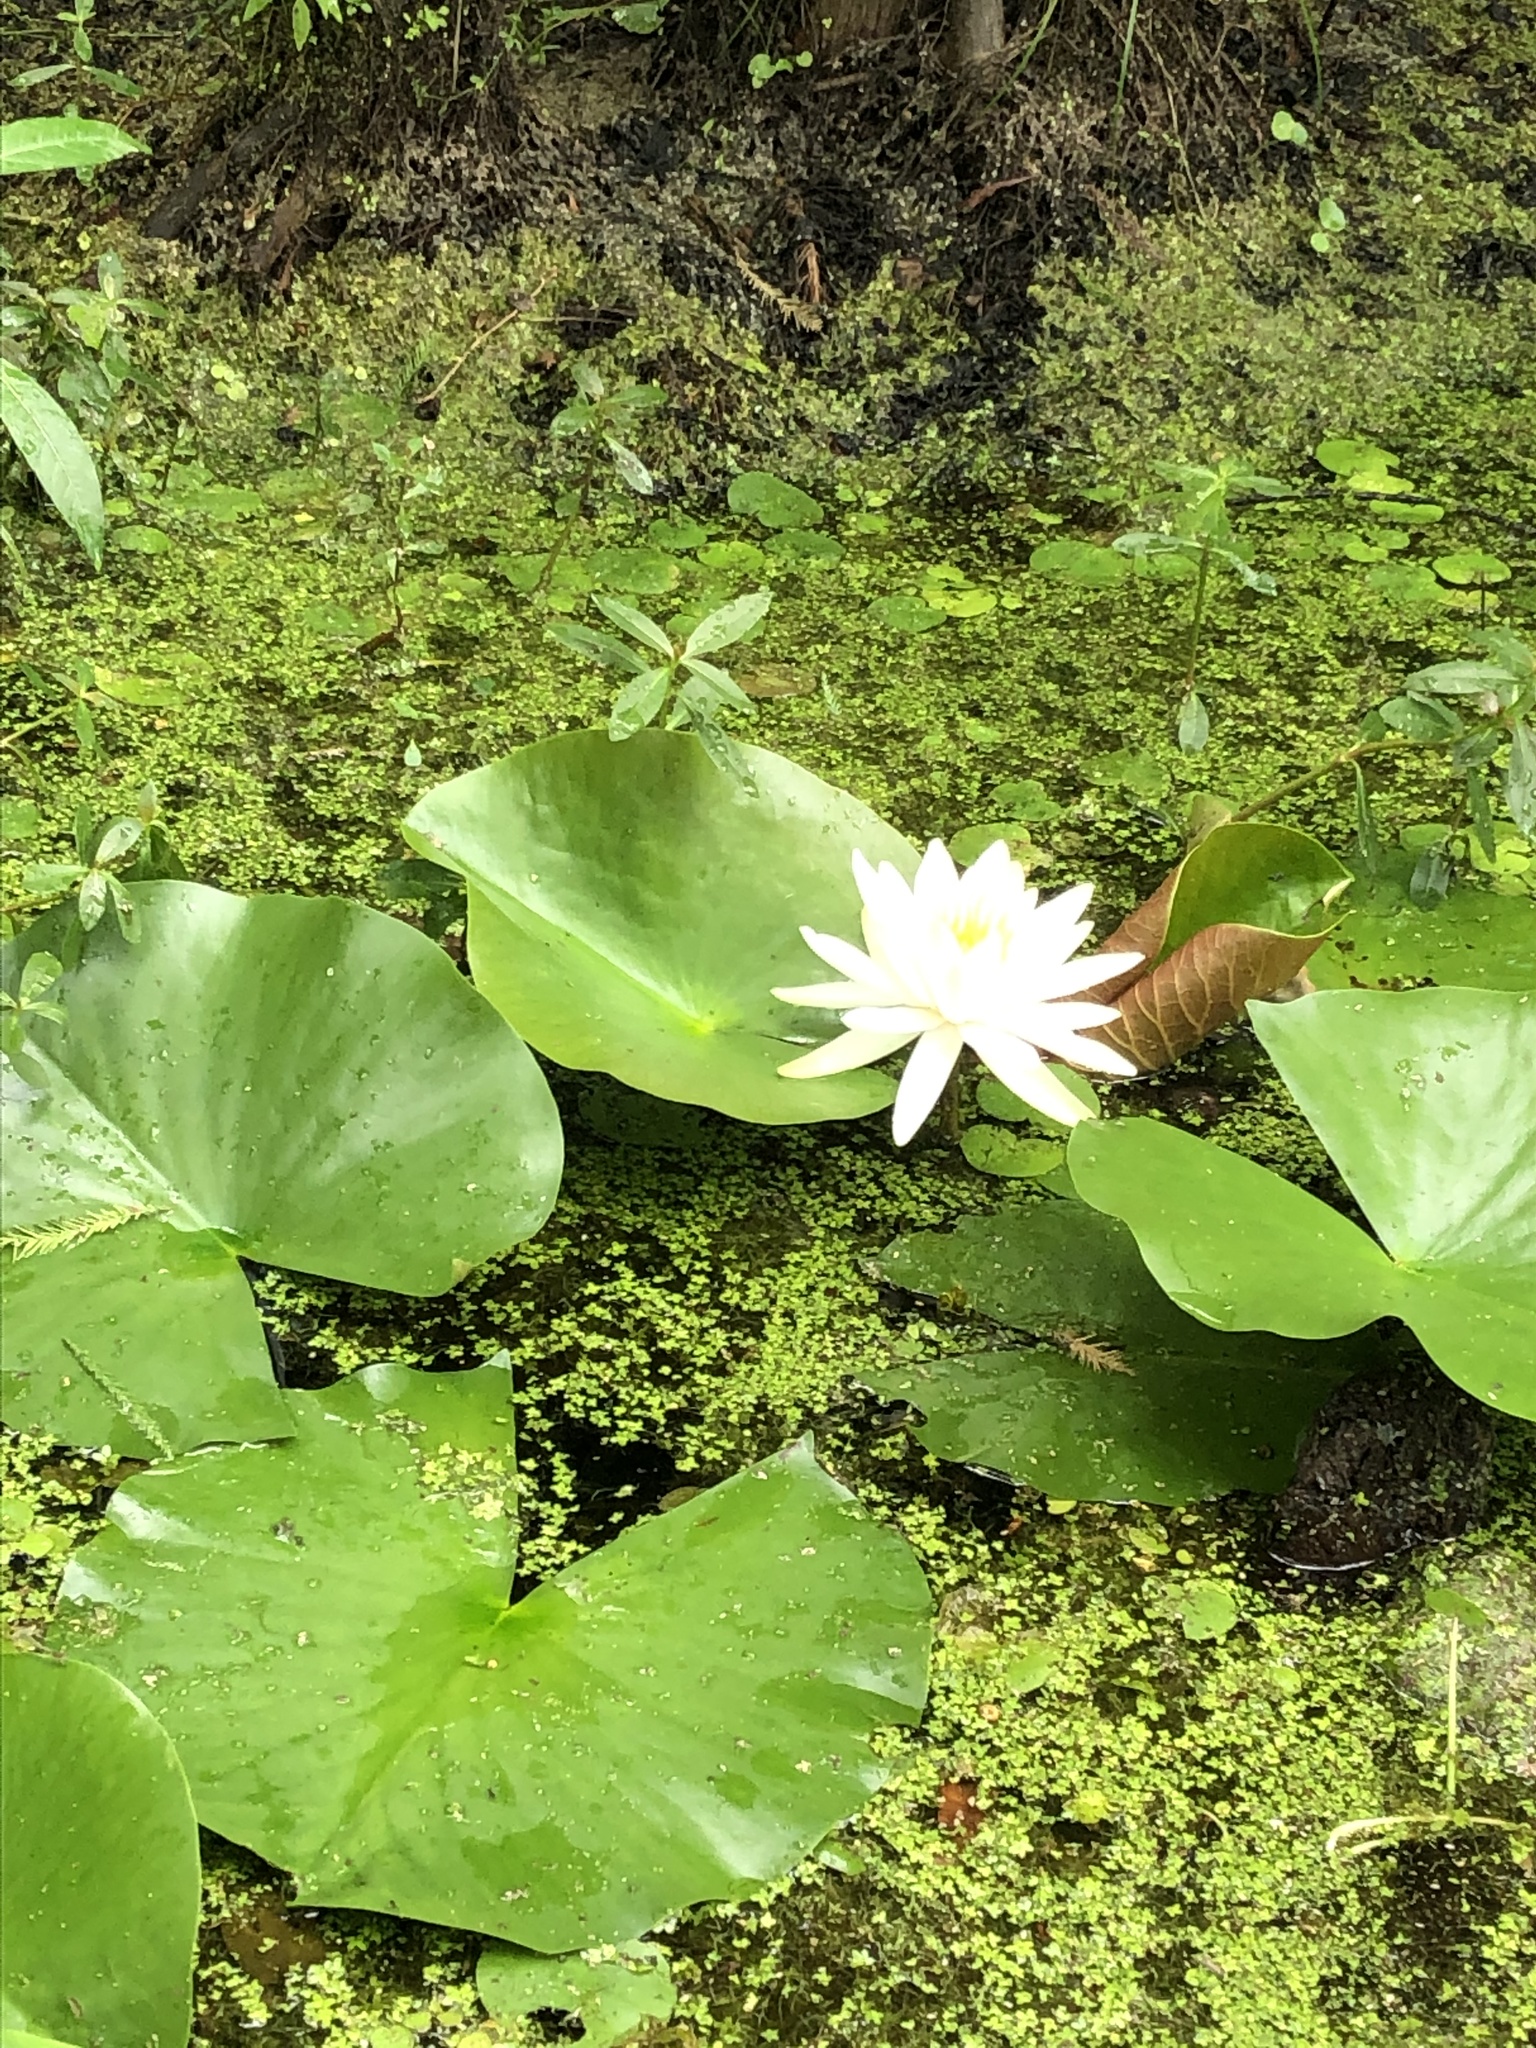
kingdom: Plantae
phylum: Tracheophyta
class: Magnoliopsida
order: Nymphaeales
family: Nymphaeaceae
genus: Nymphaea
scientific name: Nymphaea odorata
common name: Fragrant water-lily
